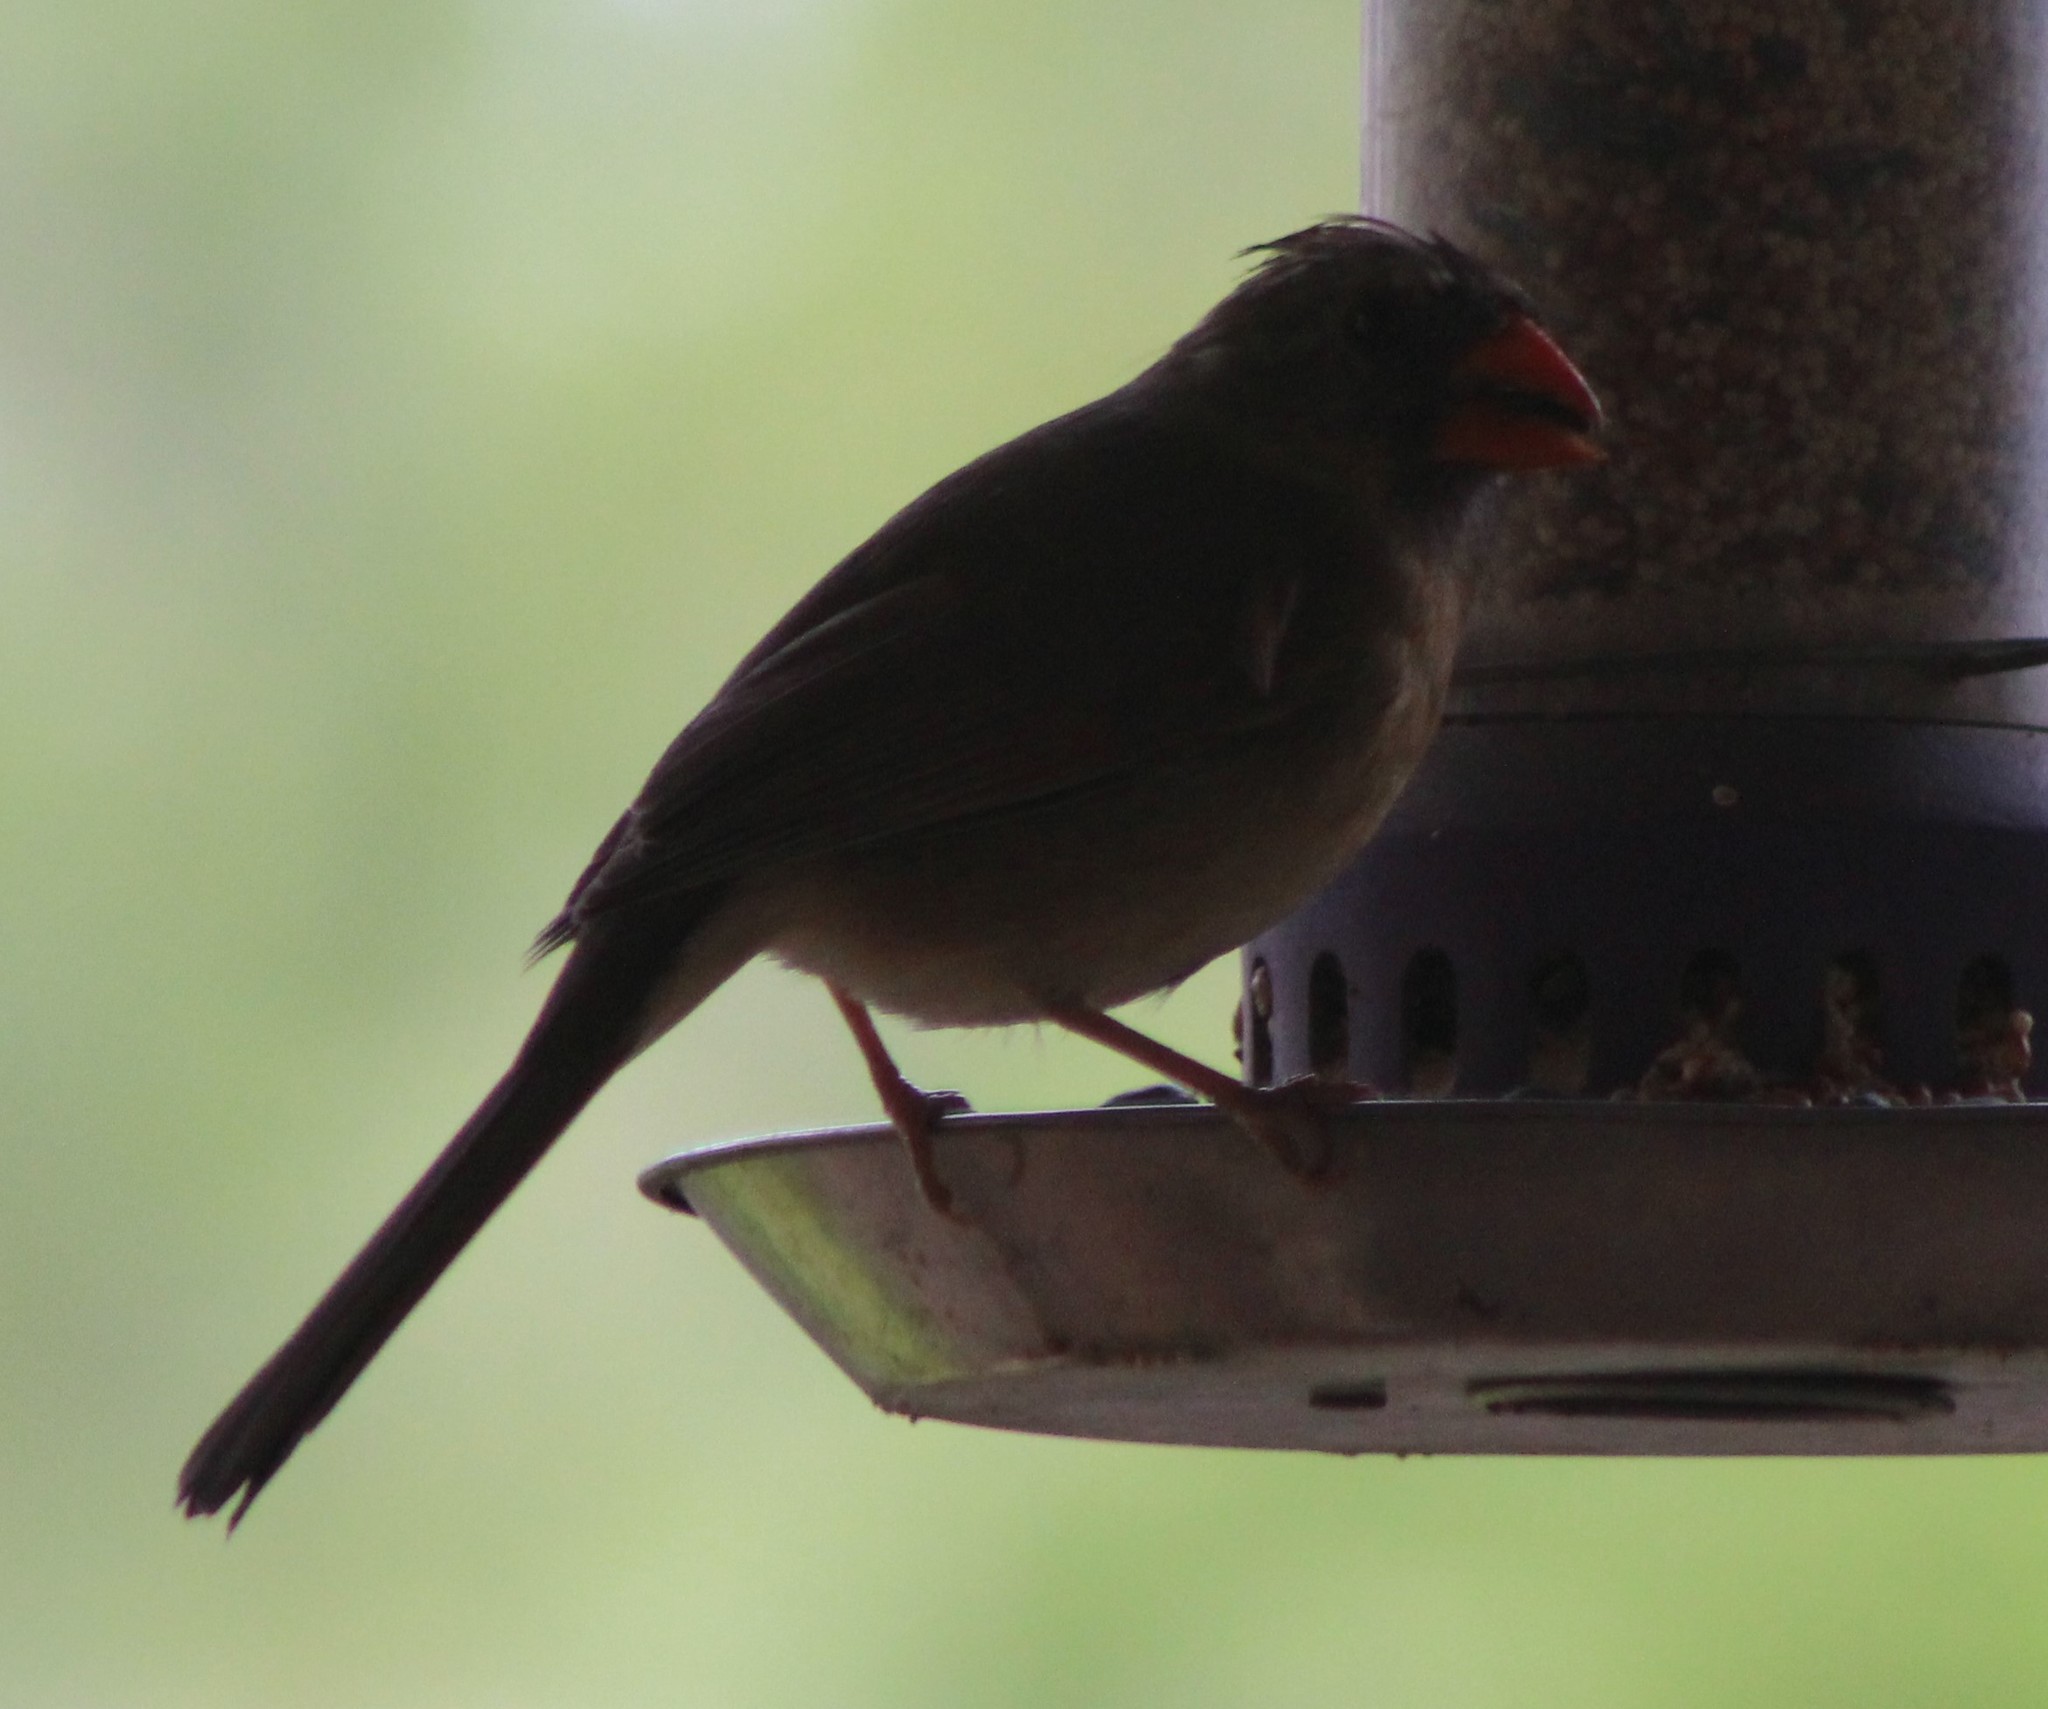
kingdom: Animalia
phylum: Chordata
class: Aves
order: Passeriformes
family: Cardinalidae
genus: Cardinalis
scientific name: Cardinalis cardinalis
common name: Northern cardinal
